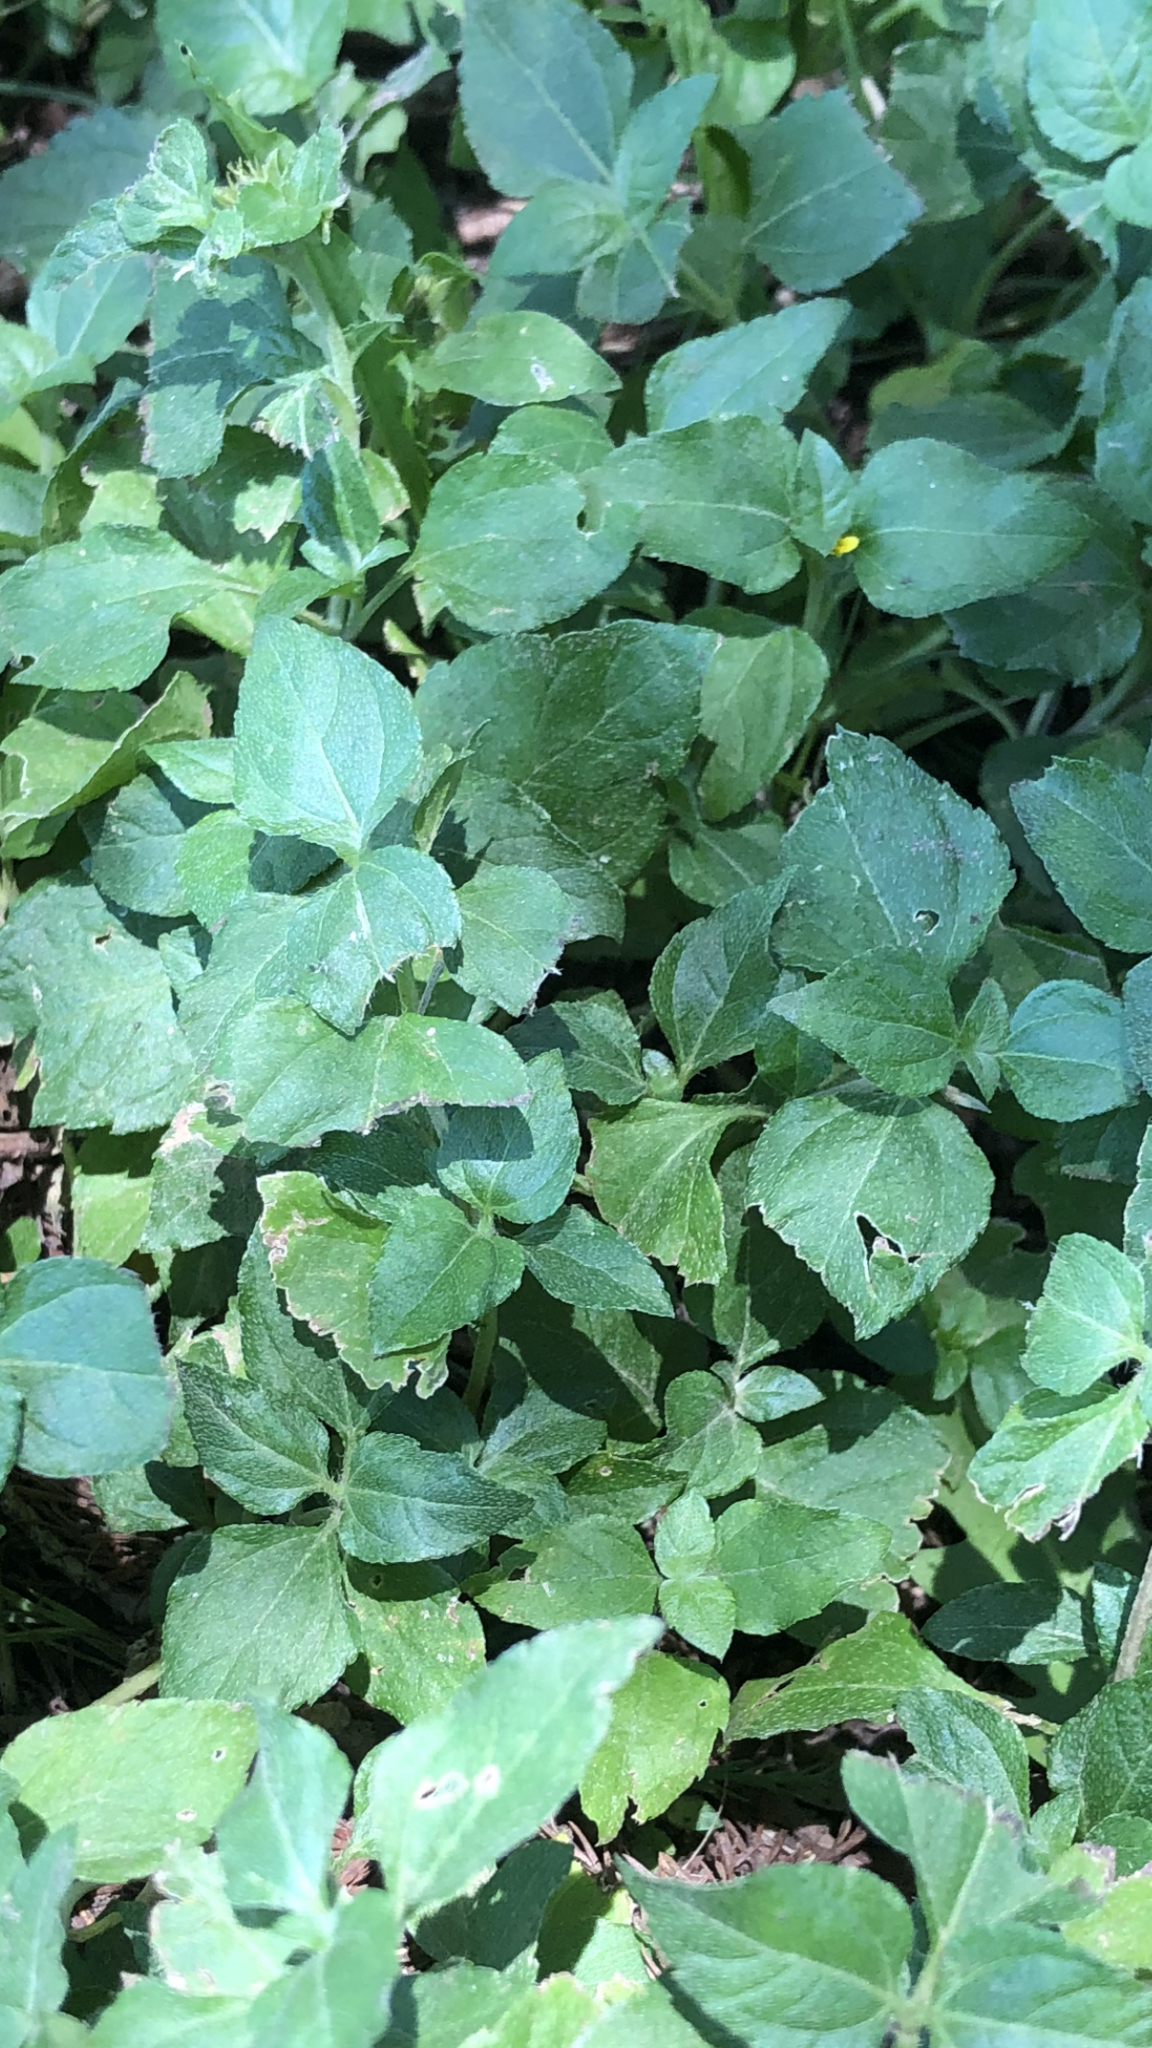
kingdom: Plantae
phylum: Tracheophyta
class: Magnoliopsida
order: Asterales
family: Asteraceae
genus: Calyptocarpus
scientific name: Calyptocarpus vialis
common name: Straggler daisy
